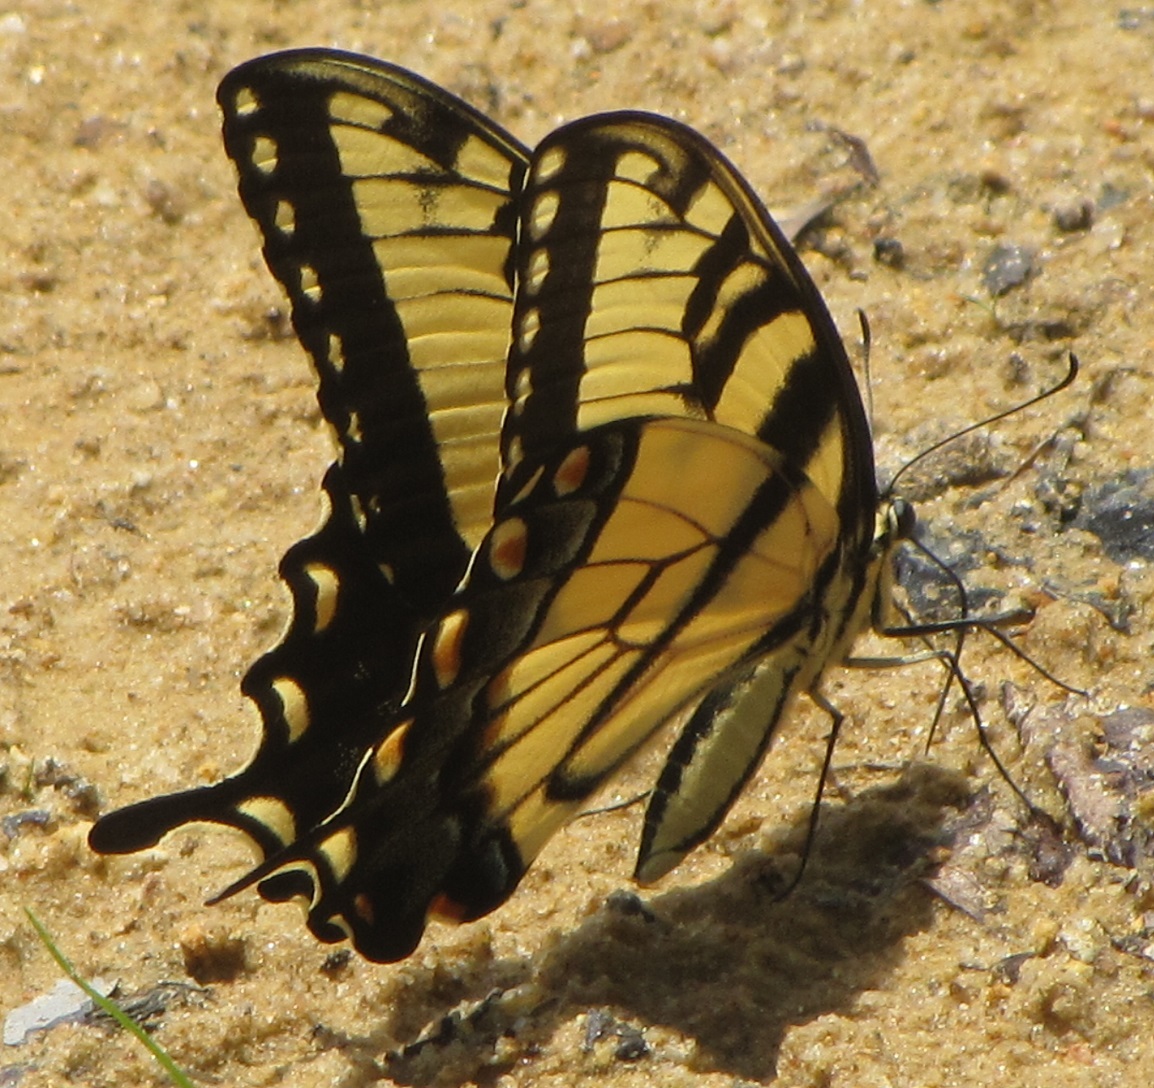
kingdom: Animalia
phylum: Arthropoda
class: Insecta
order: Lepidoptera
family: Papilionidae
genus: Papilio
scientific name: Papilio glaucus
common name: Tiger swallowtail
